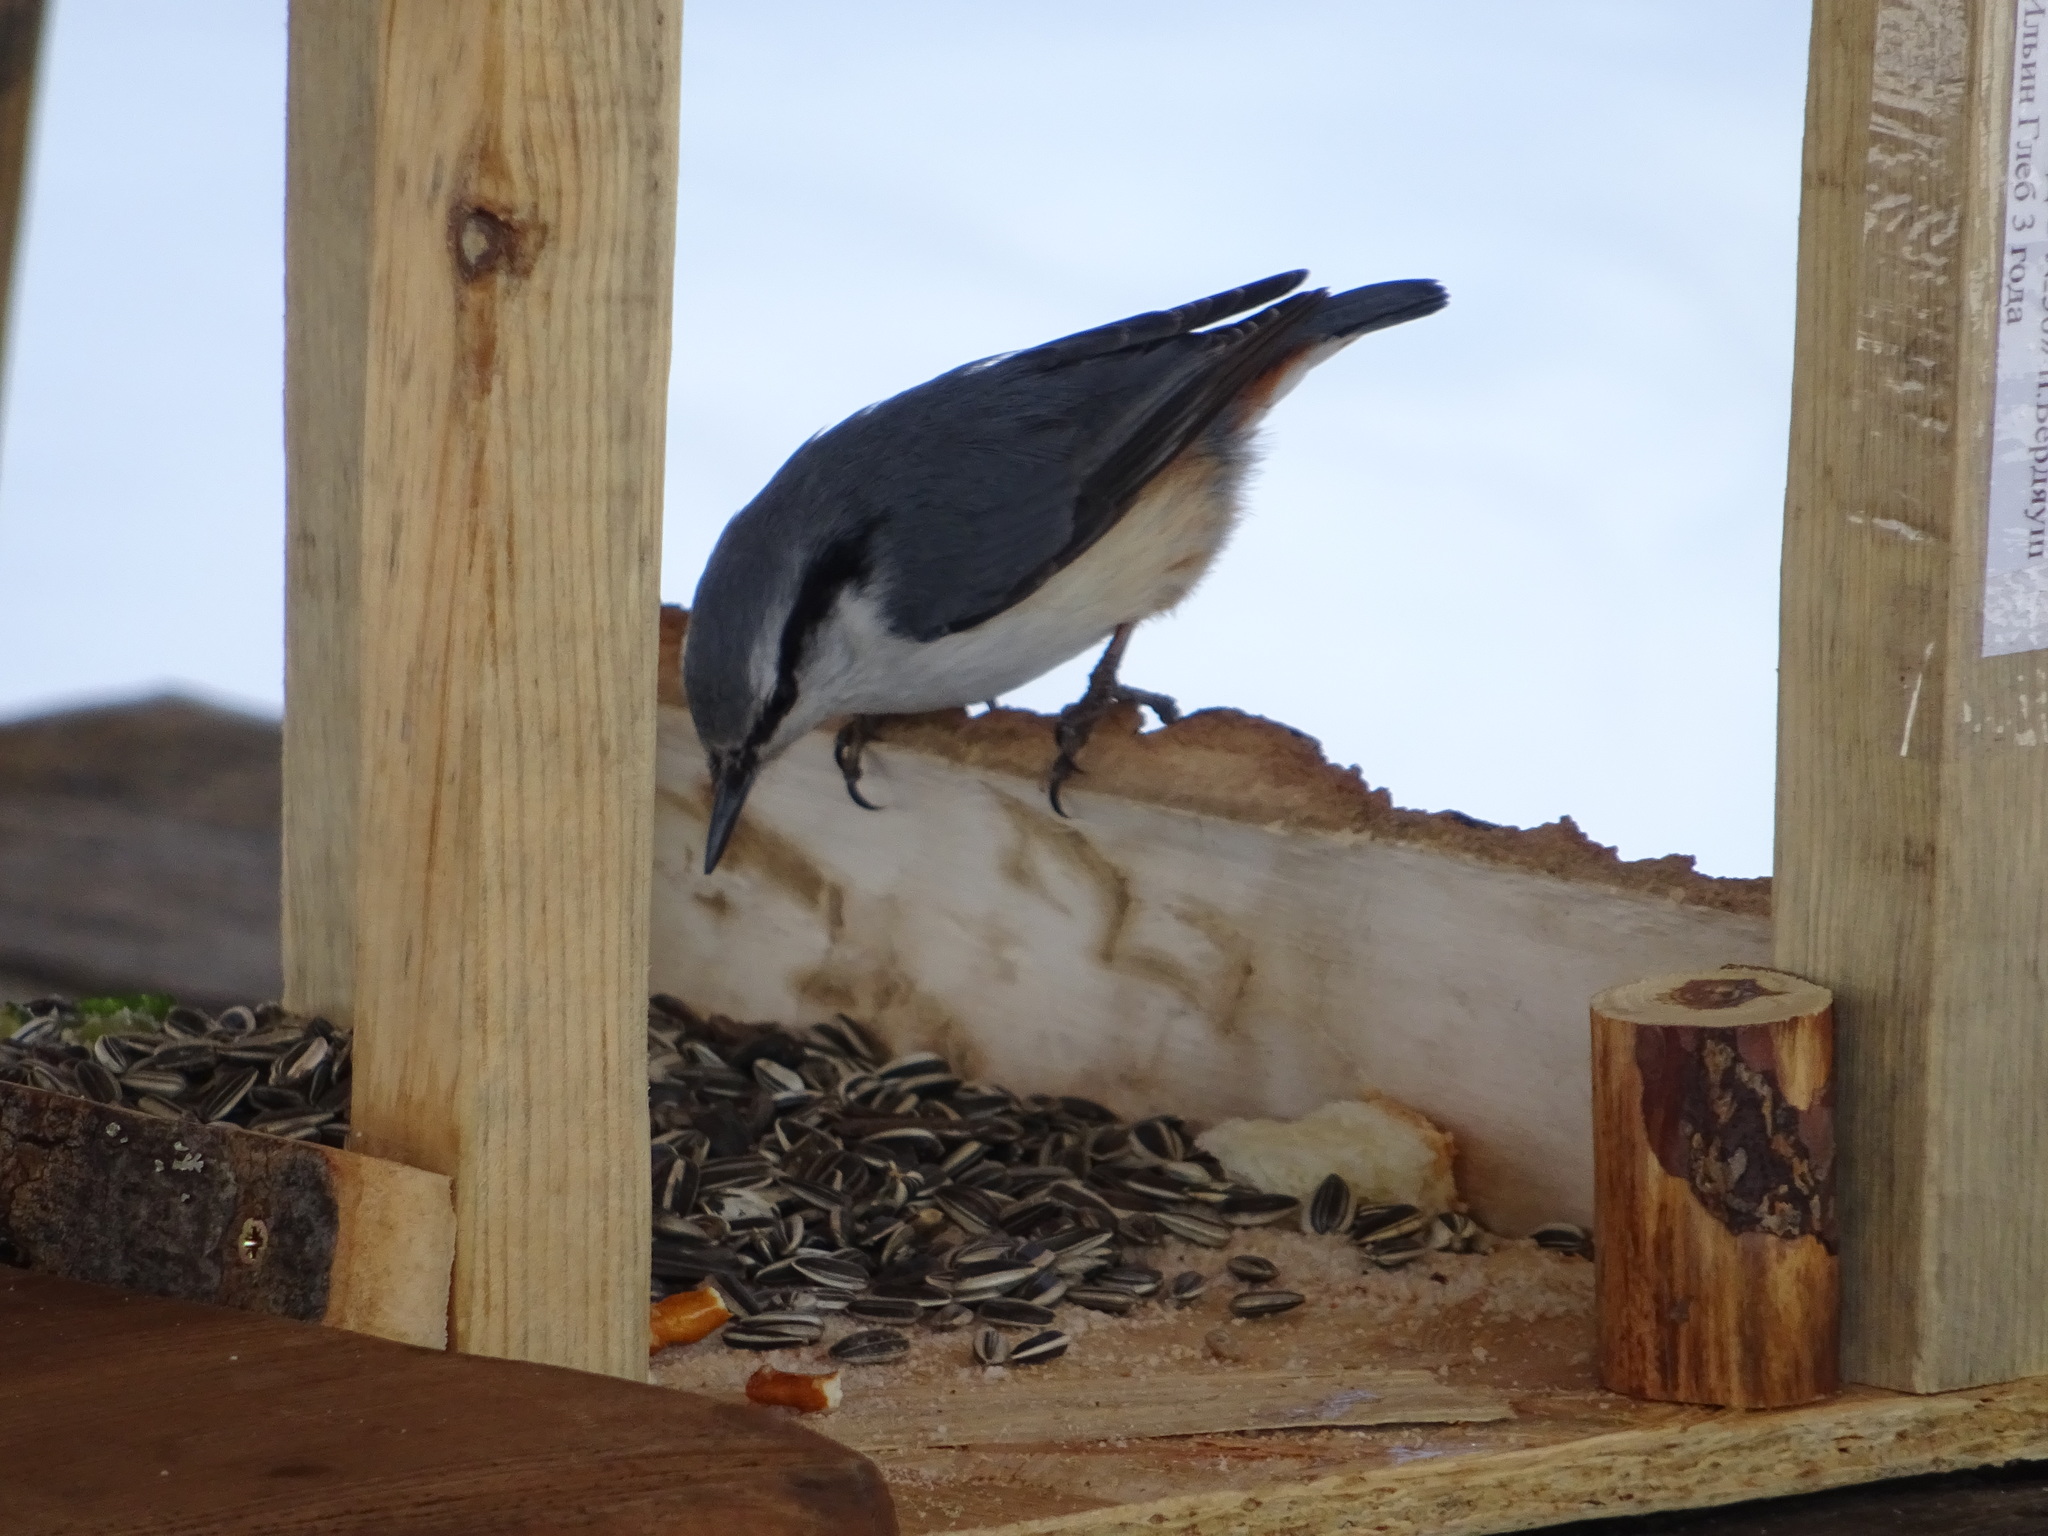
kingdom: Animalia
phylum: Chordata
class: Aves
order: Passeriformes
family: Sittidae
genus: Sitta
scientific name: Sitta europaea
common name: Eurasian nuthatch
